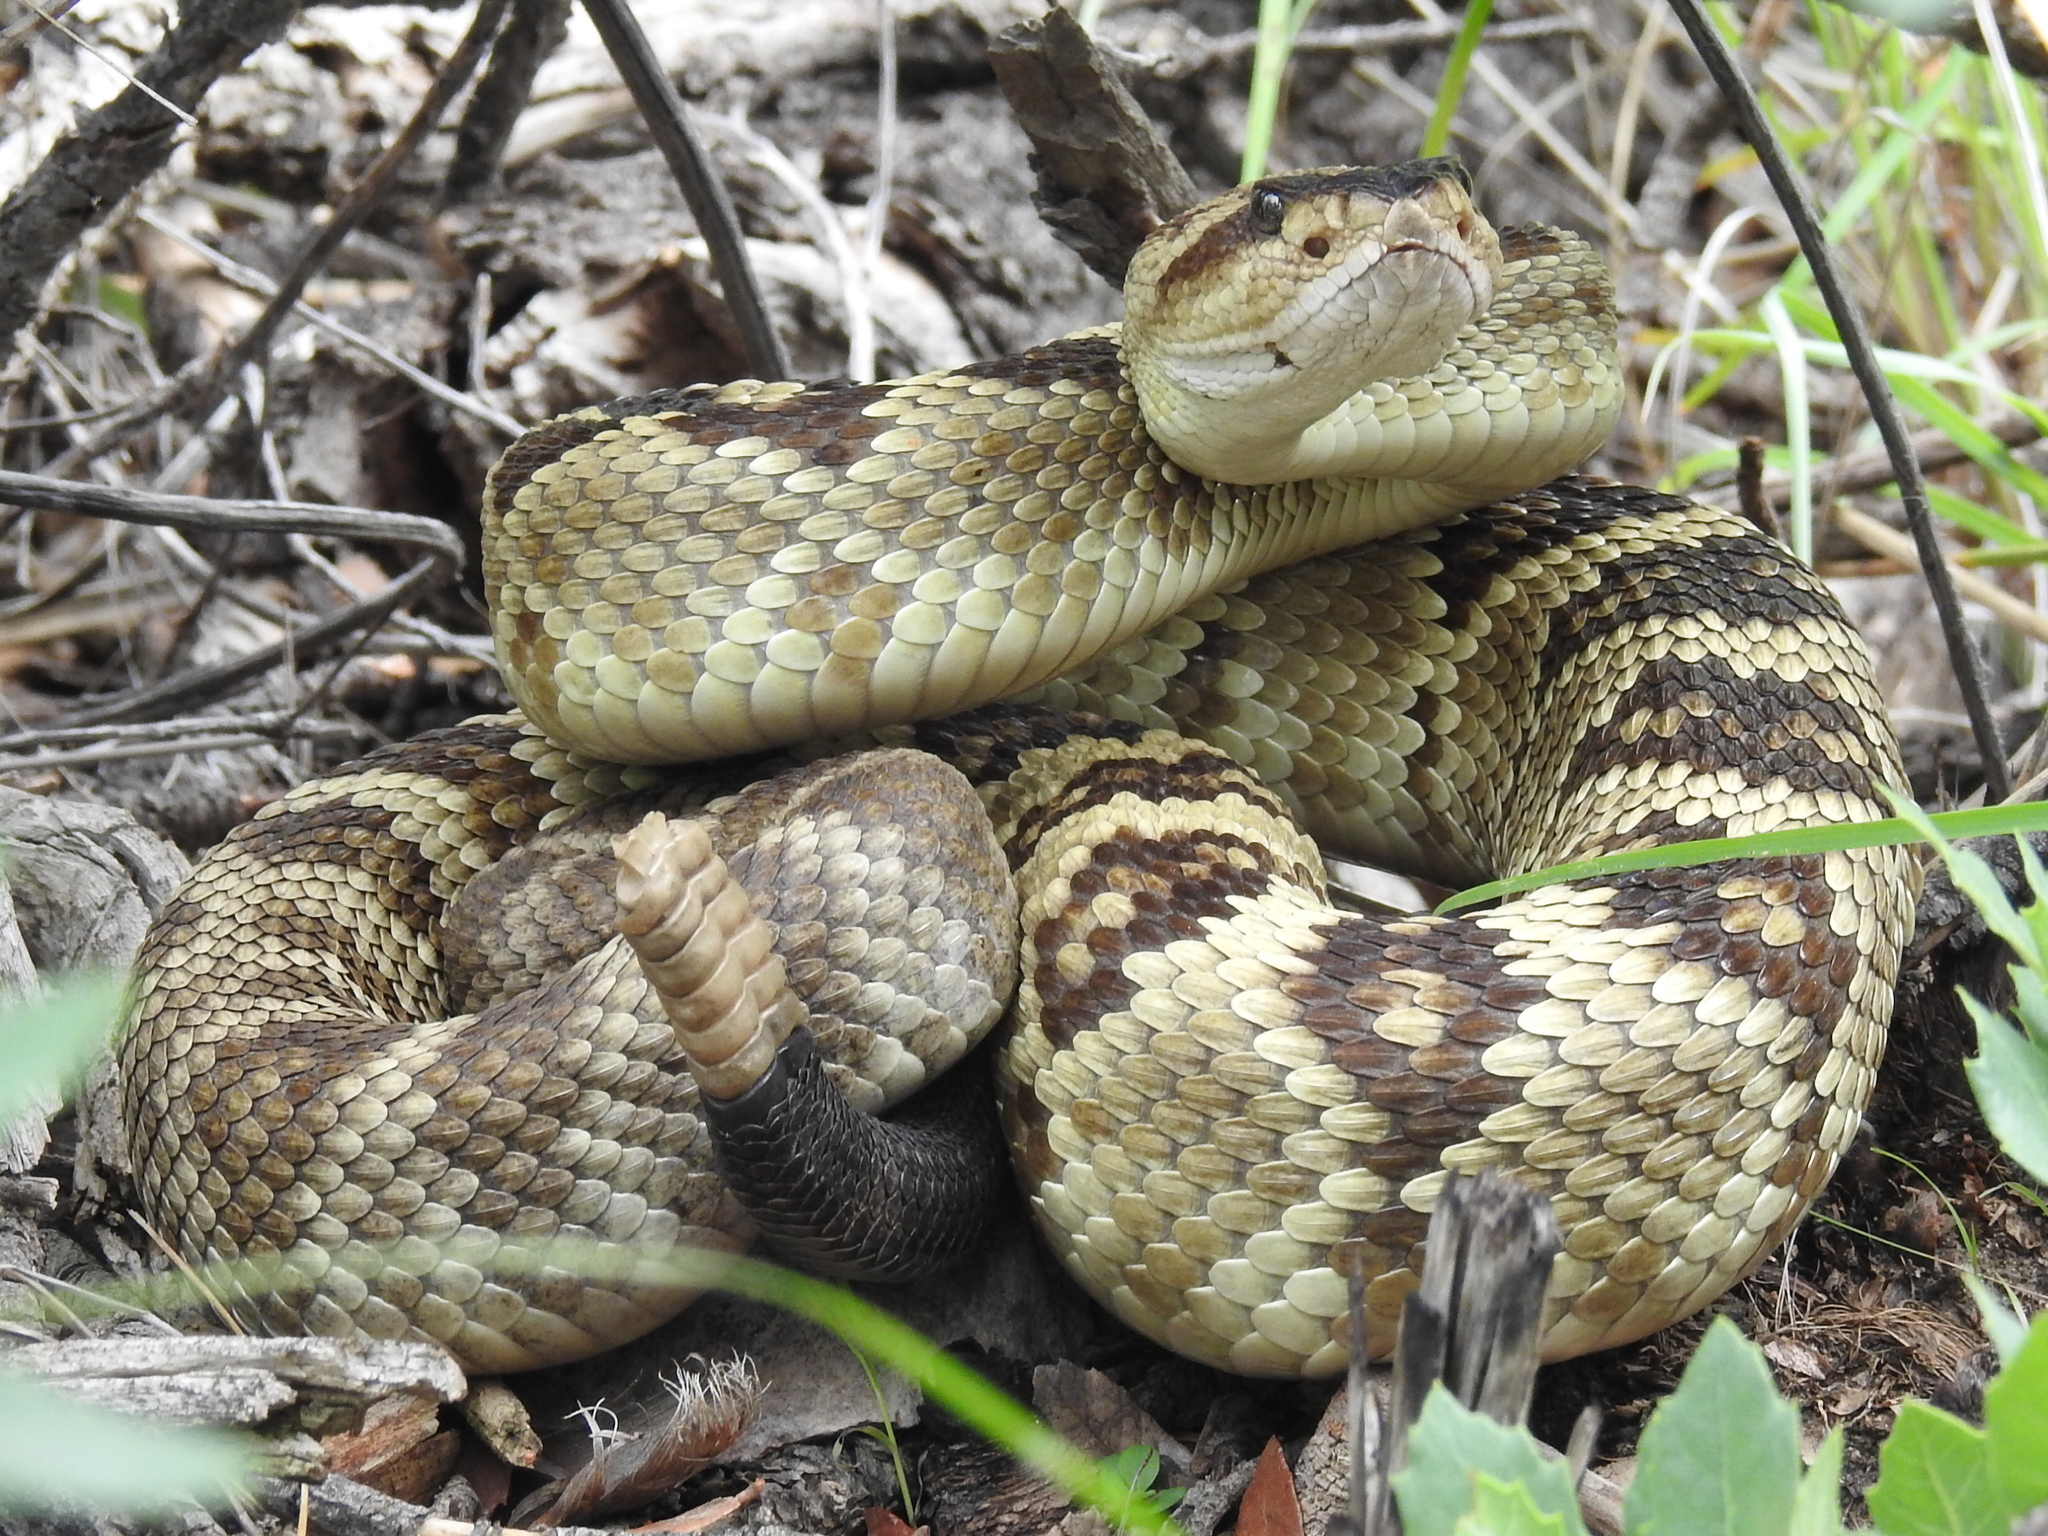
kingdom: Animalia
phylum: Chordata
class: Squamata
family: Viperidae
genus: Crotalus
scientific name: Crotalus molossus
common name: Black tailed rattlesnake
